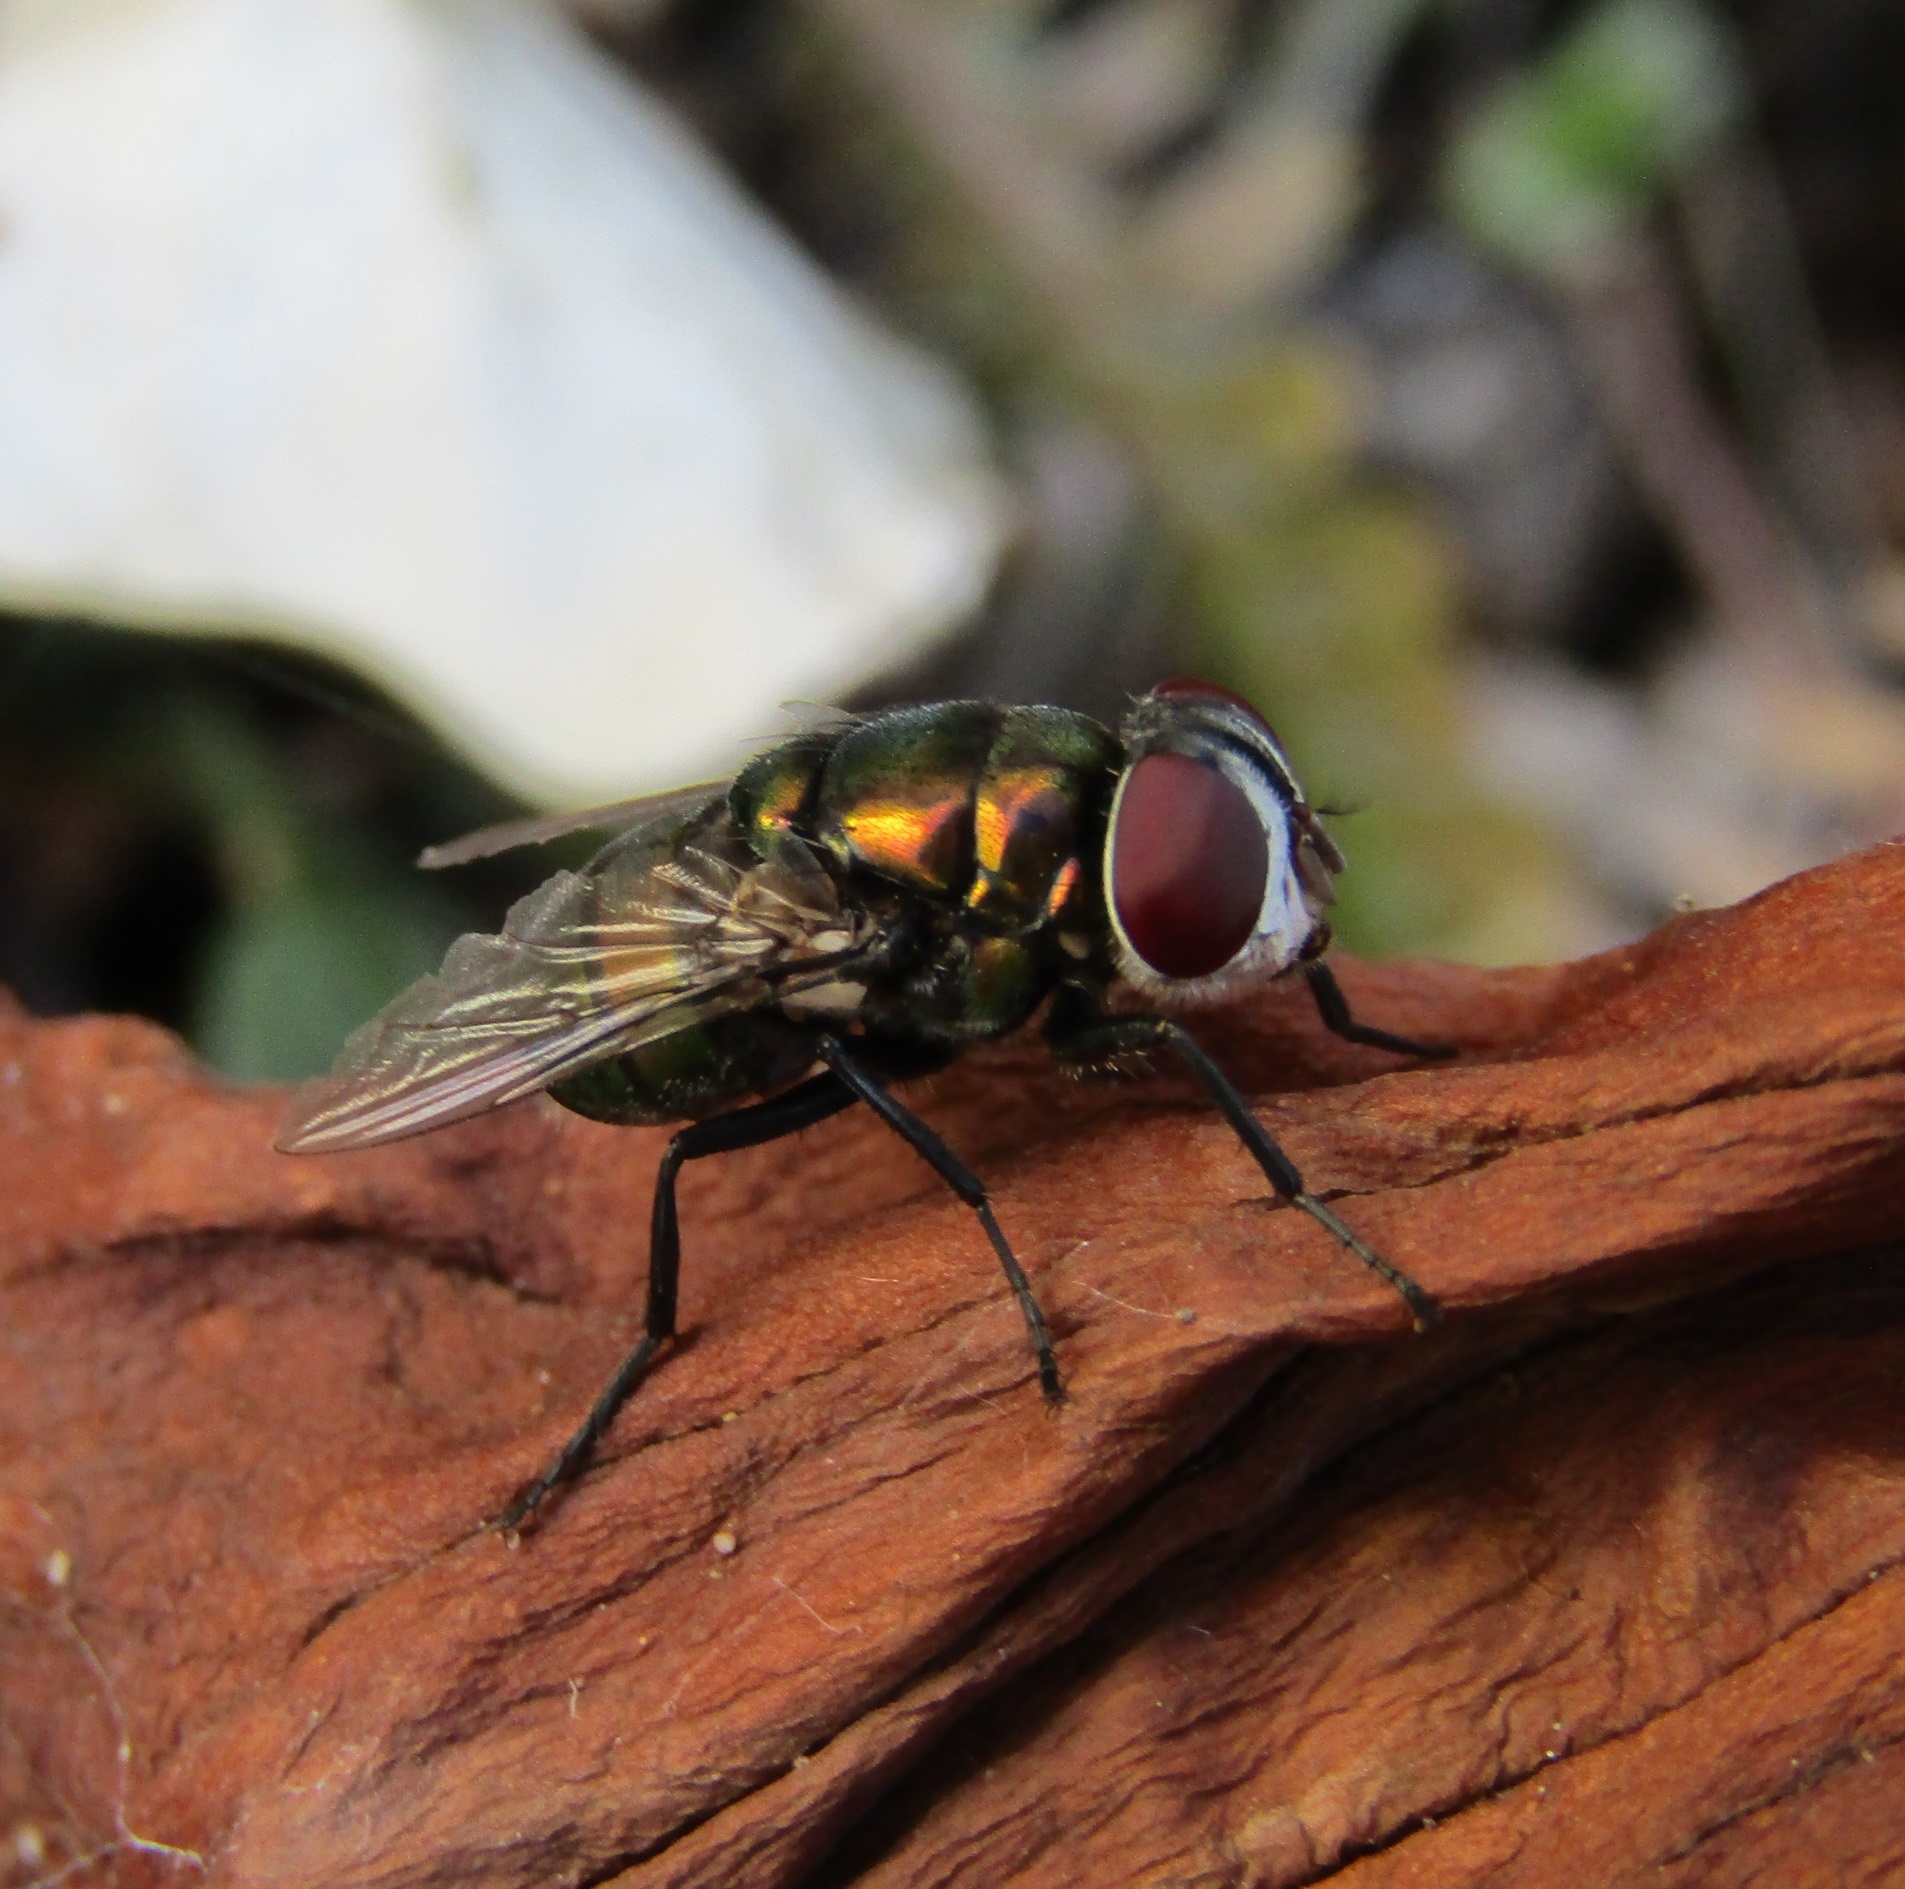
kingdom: Animalia
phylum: Arthropoda
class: Insecta
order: Diptera
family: Calliphoridae
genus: Chrysomya
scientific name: Chrysomya rufifacies
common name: Blow fly
